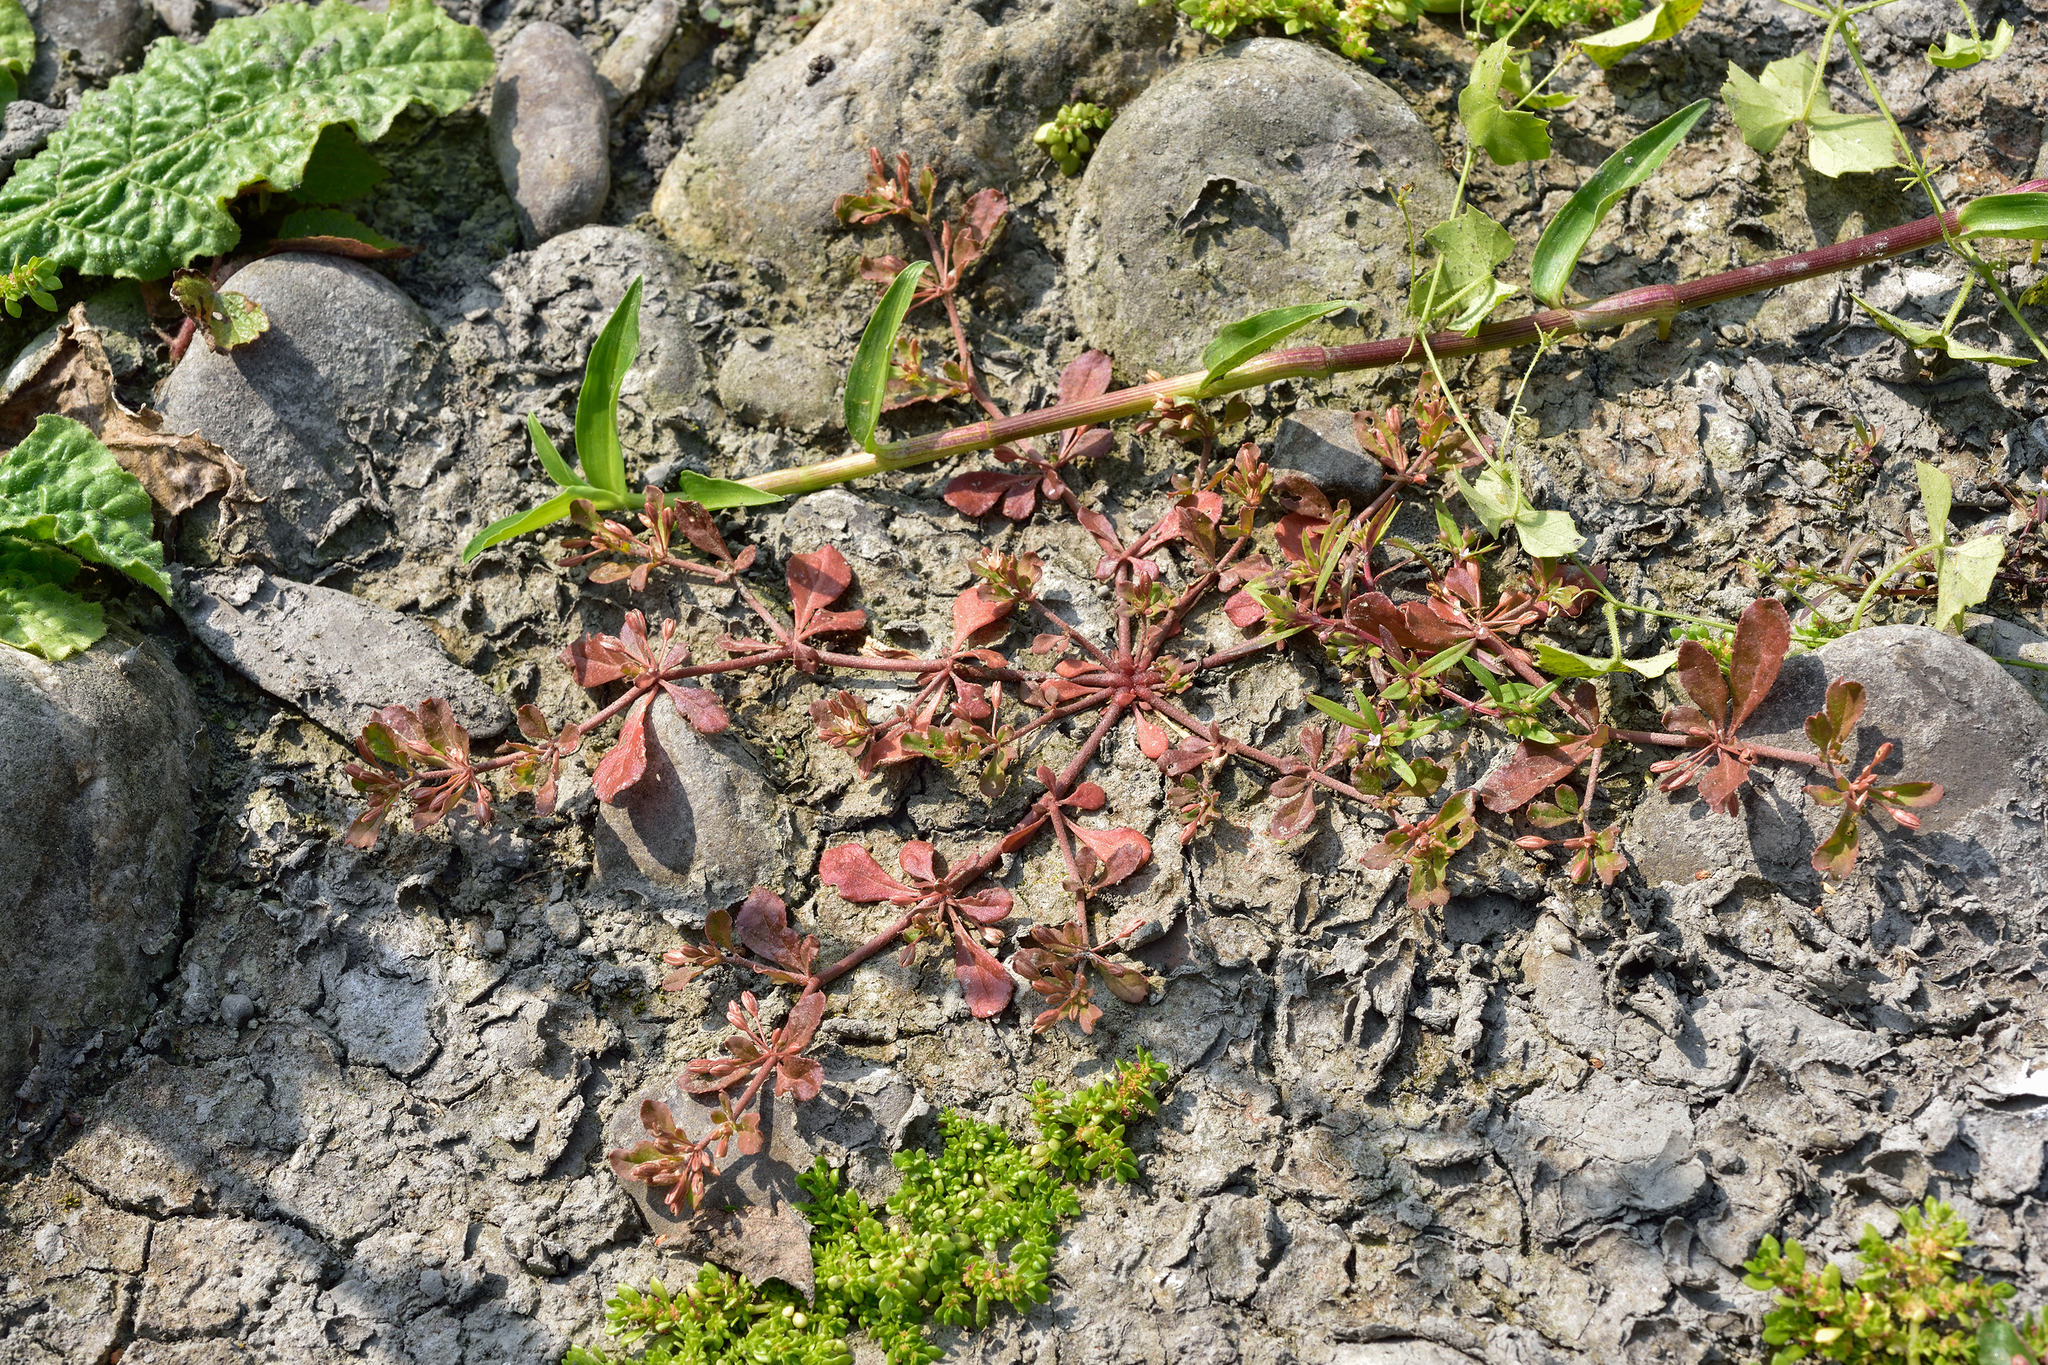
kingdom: Plantae
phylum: Tracheophyta
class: Magnoliopsida
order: Caryophyllales
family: Molluginaceae
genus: Glinus
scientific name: Glinus oppositifolius
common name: Slender carpetweed
